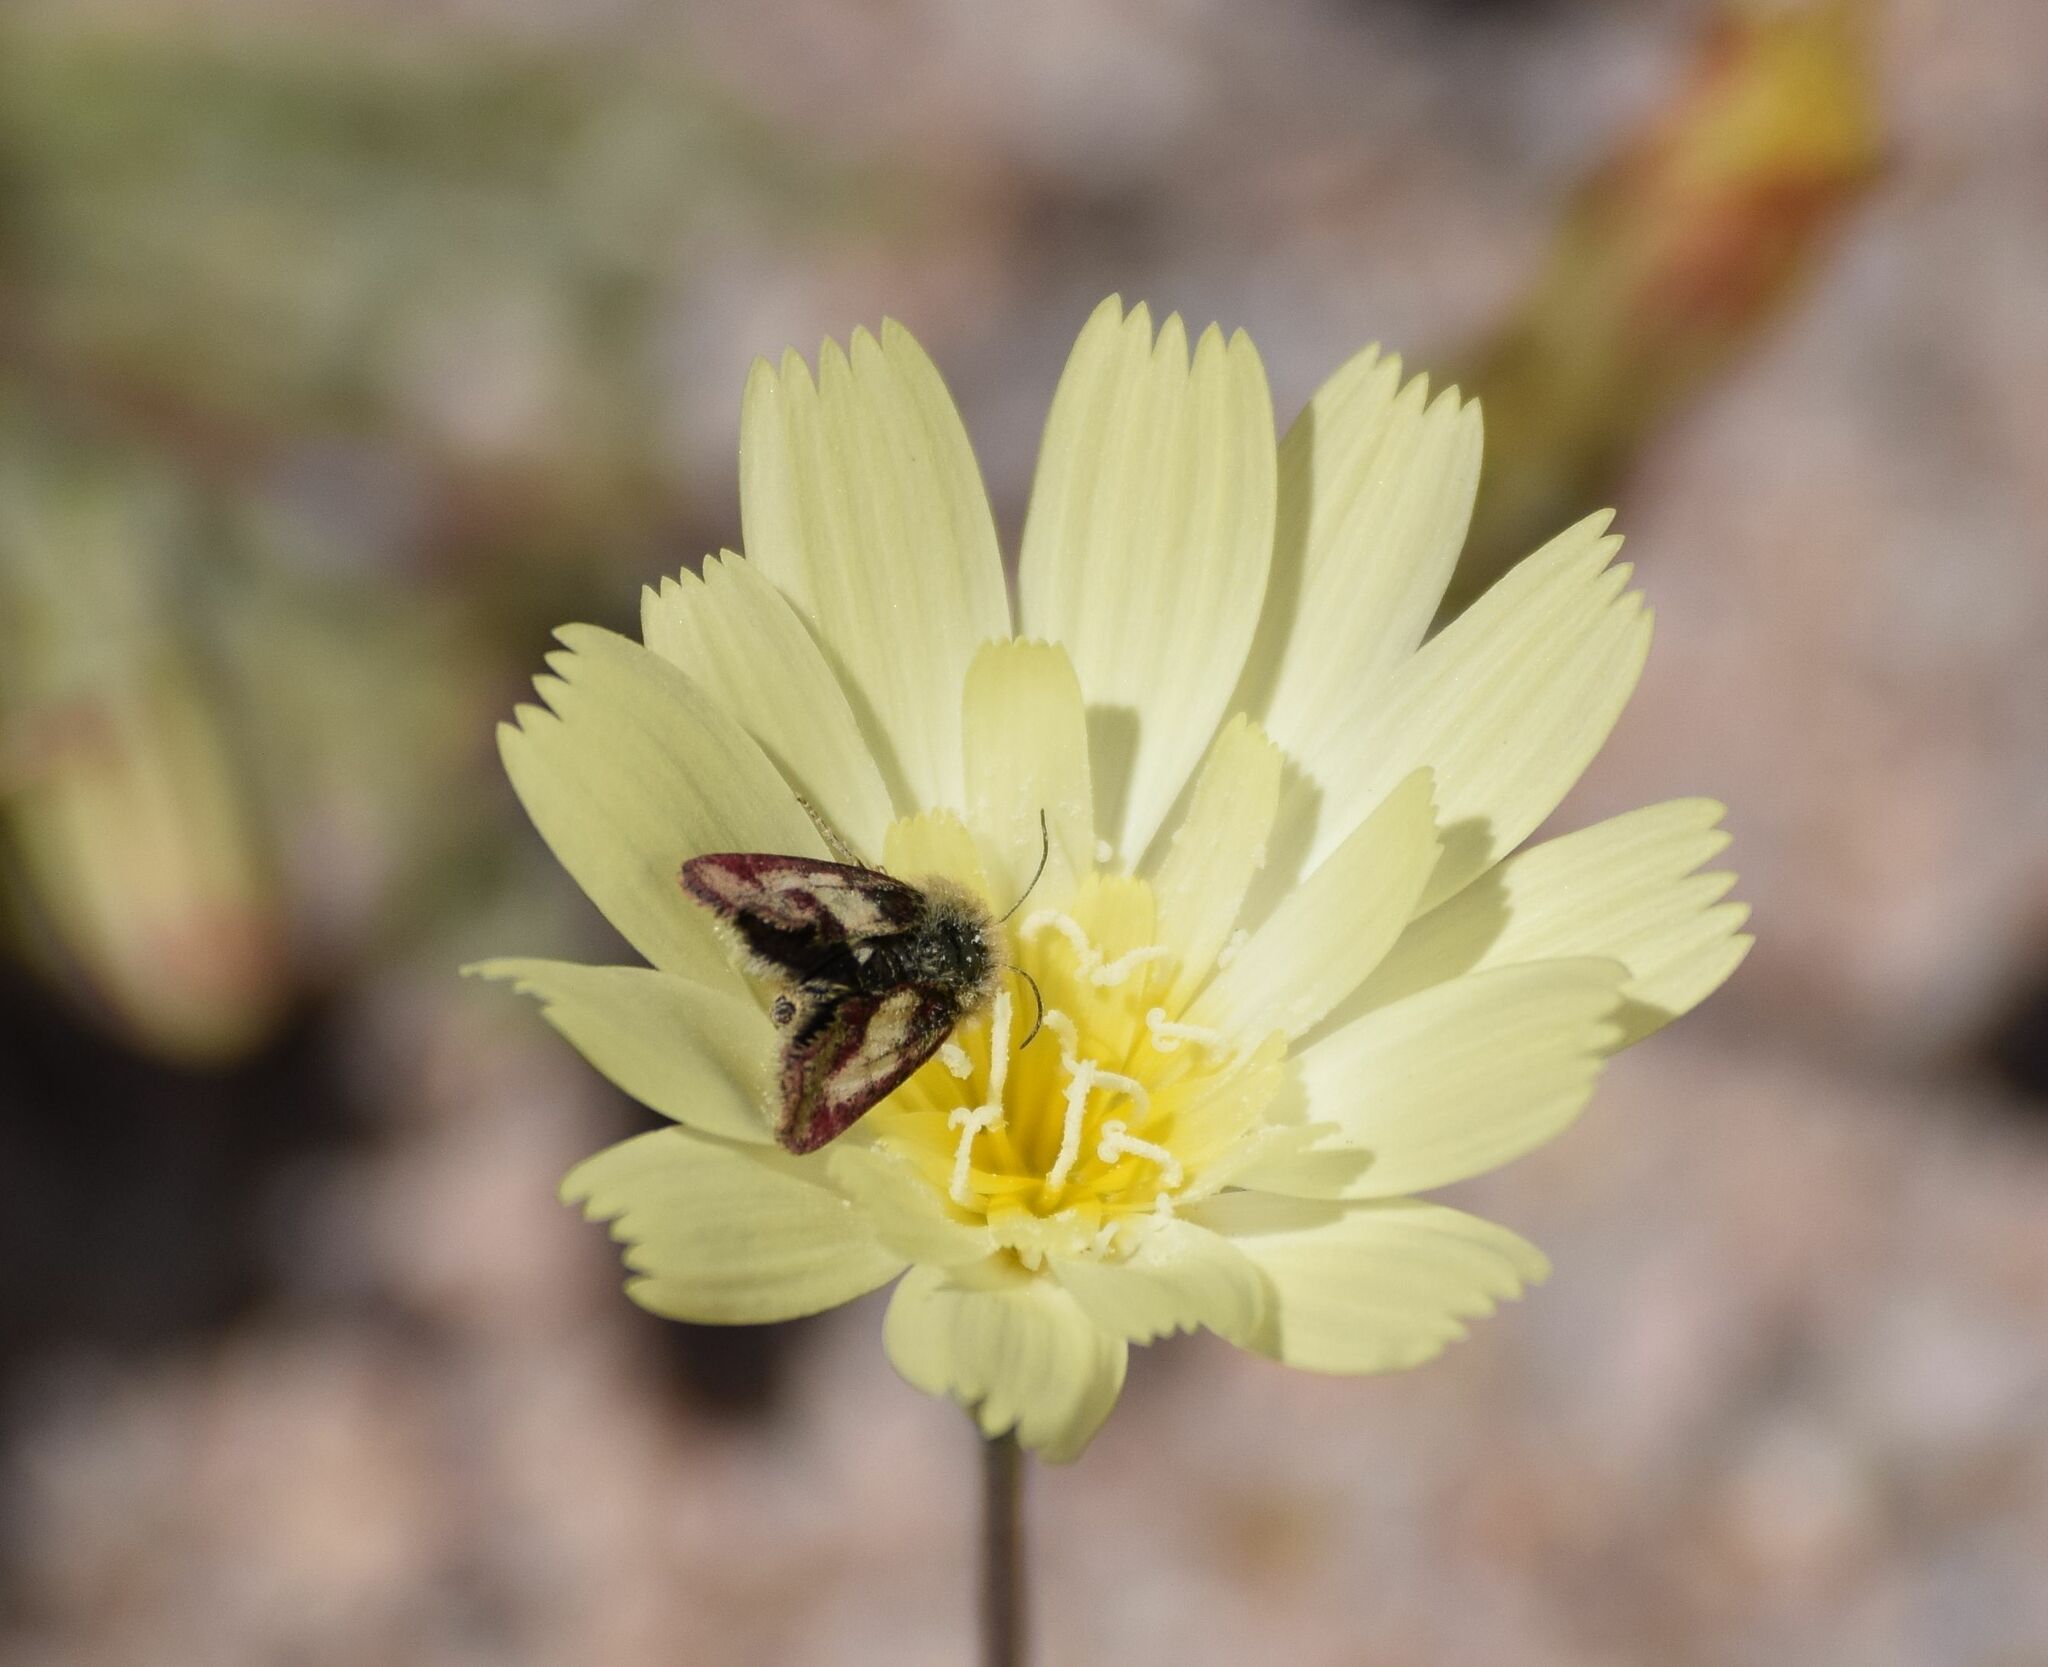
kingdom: Animalia
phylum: Arthropoda
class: Insecta
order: Lepidoptera
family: Noctuidae
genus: Heliolonche
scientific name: Heliolonche pictipennis
